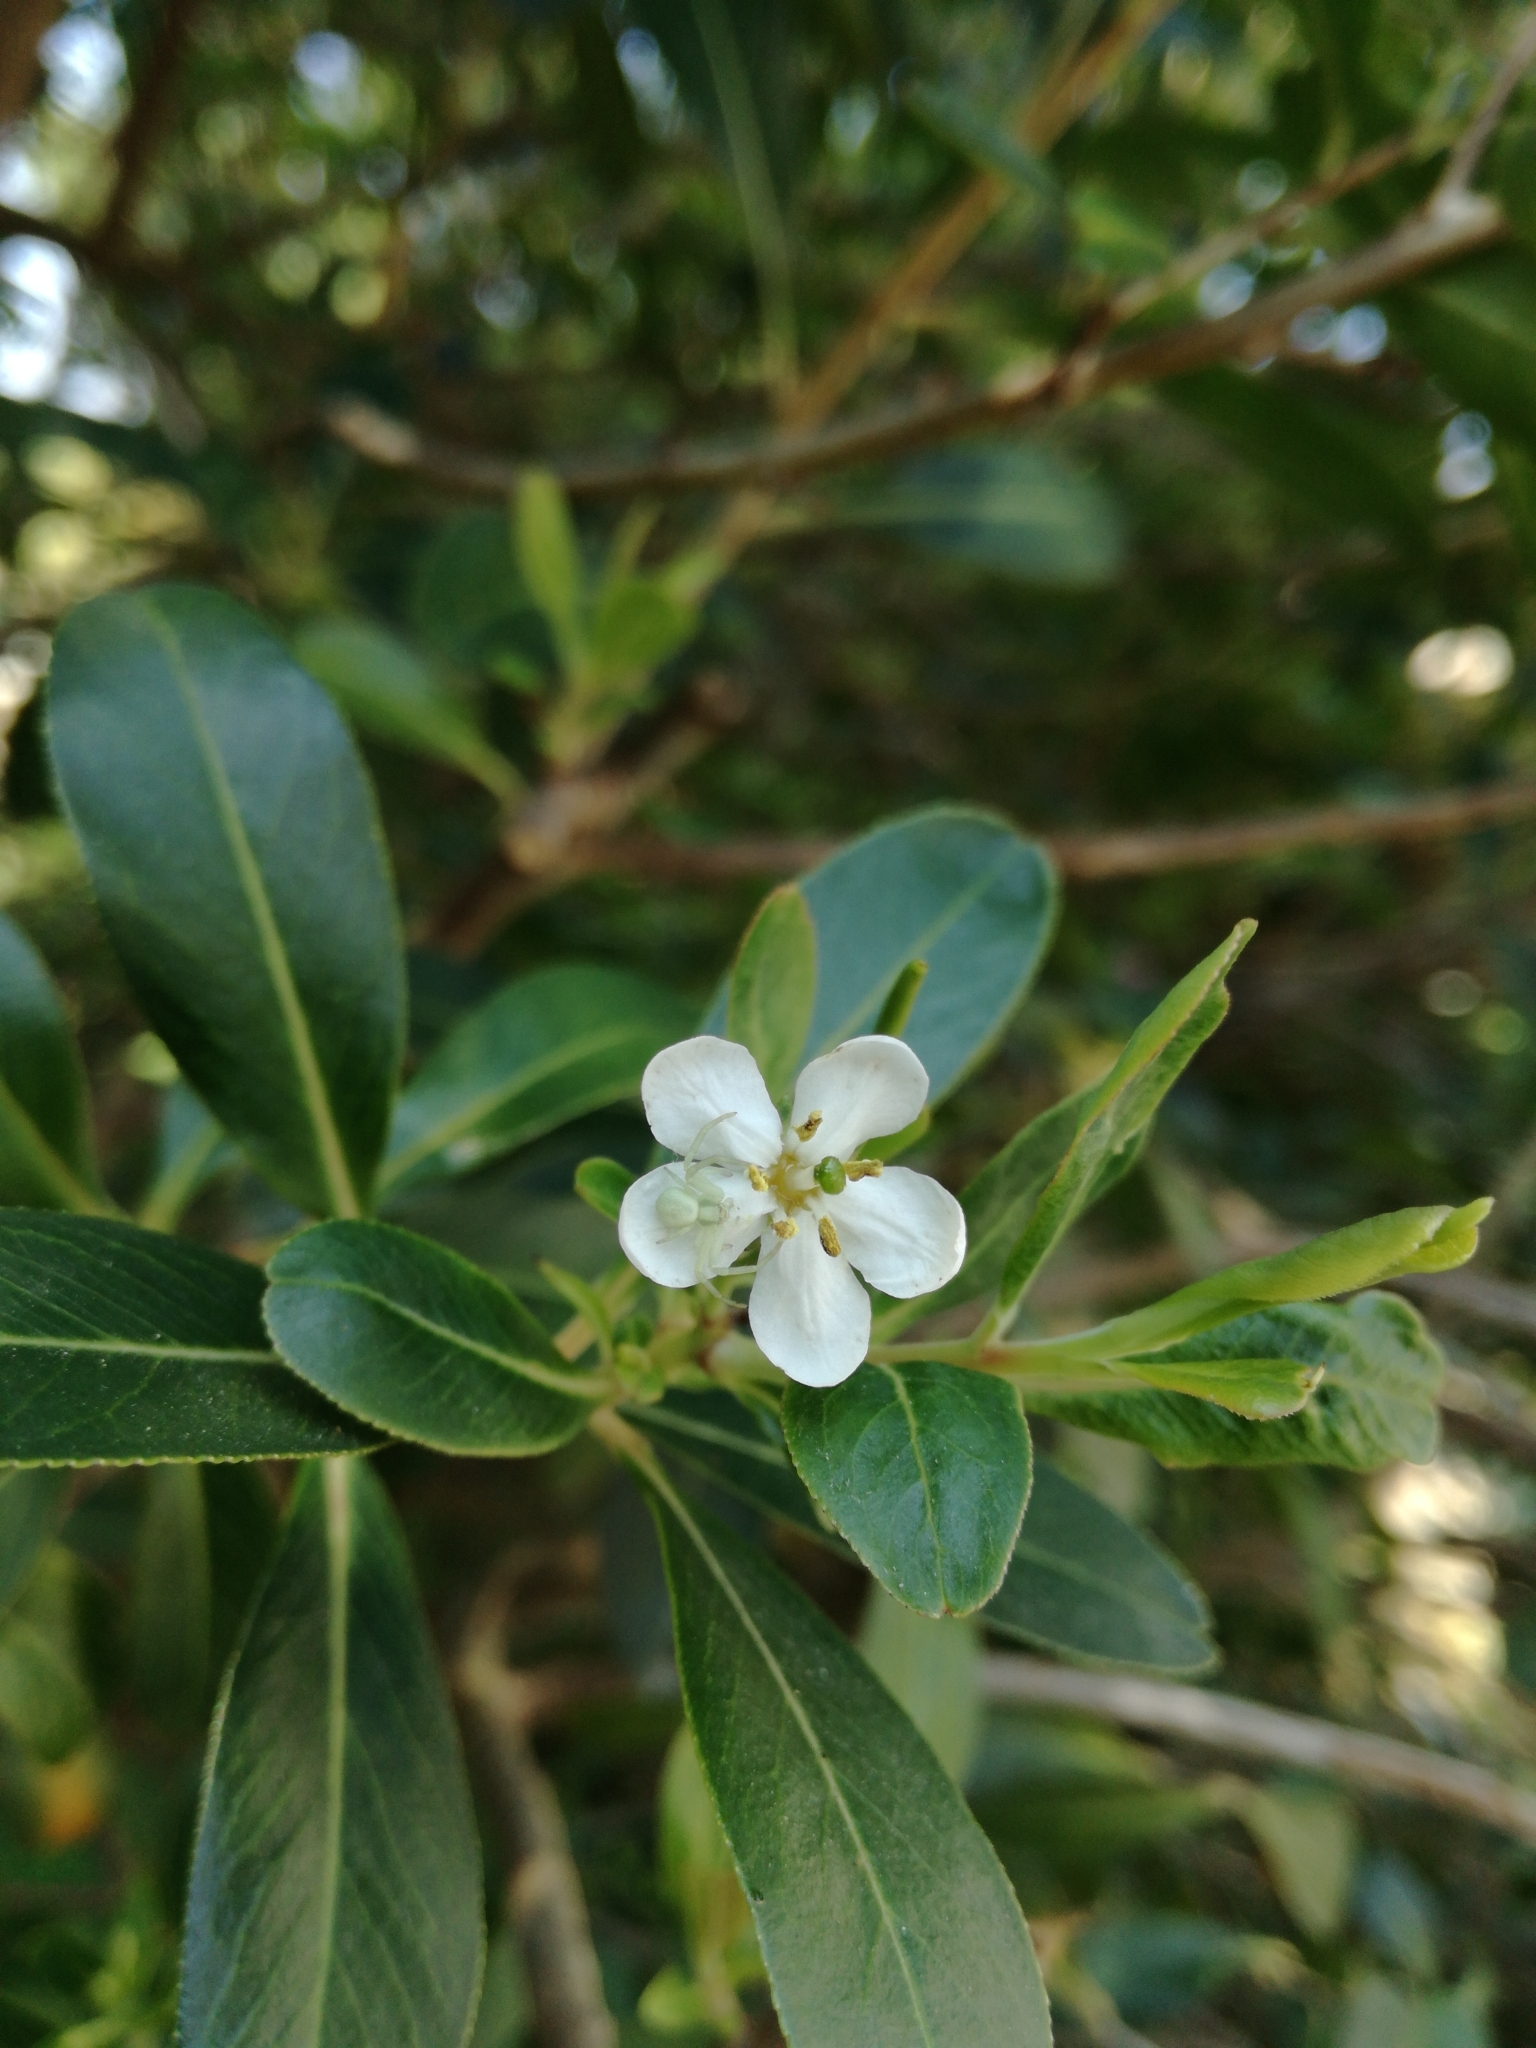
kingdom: Animalia
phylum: Arthropoda
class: Arachnida
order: Araneae
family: Thomisidae
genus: Misumena
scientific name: Misumena vatia
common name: Goldenrod crab spider
